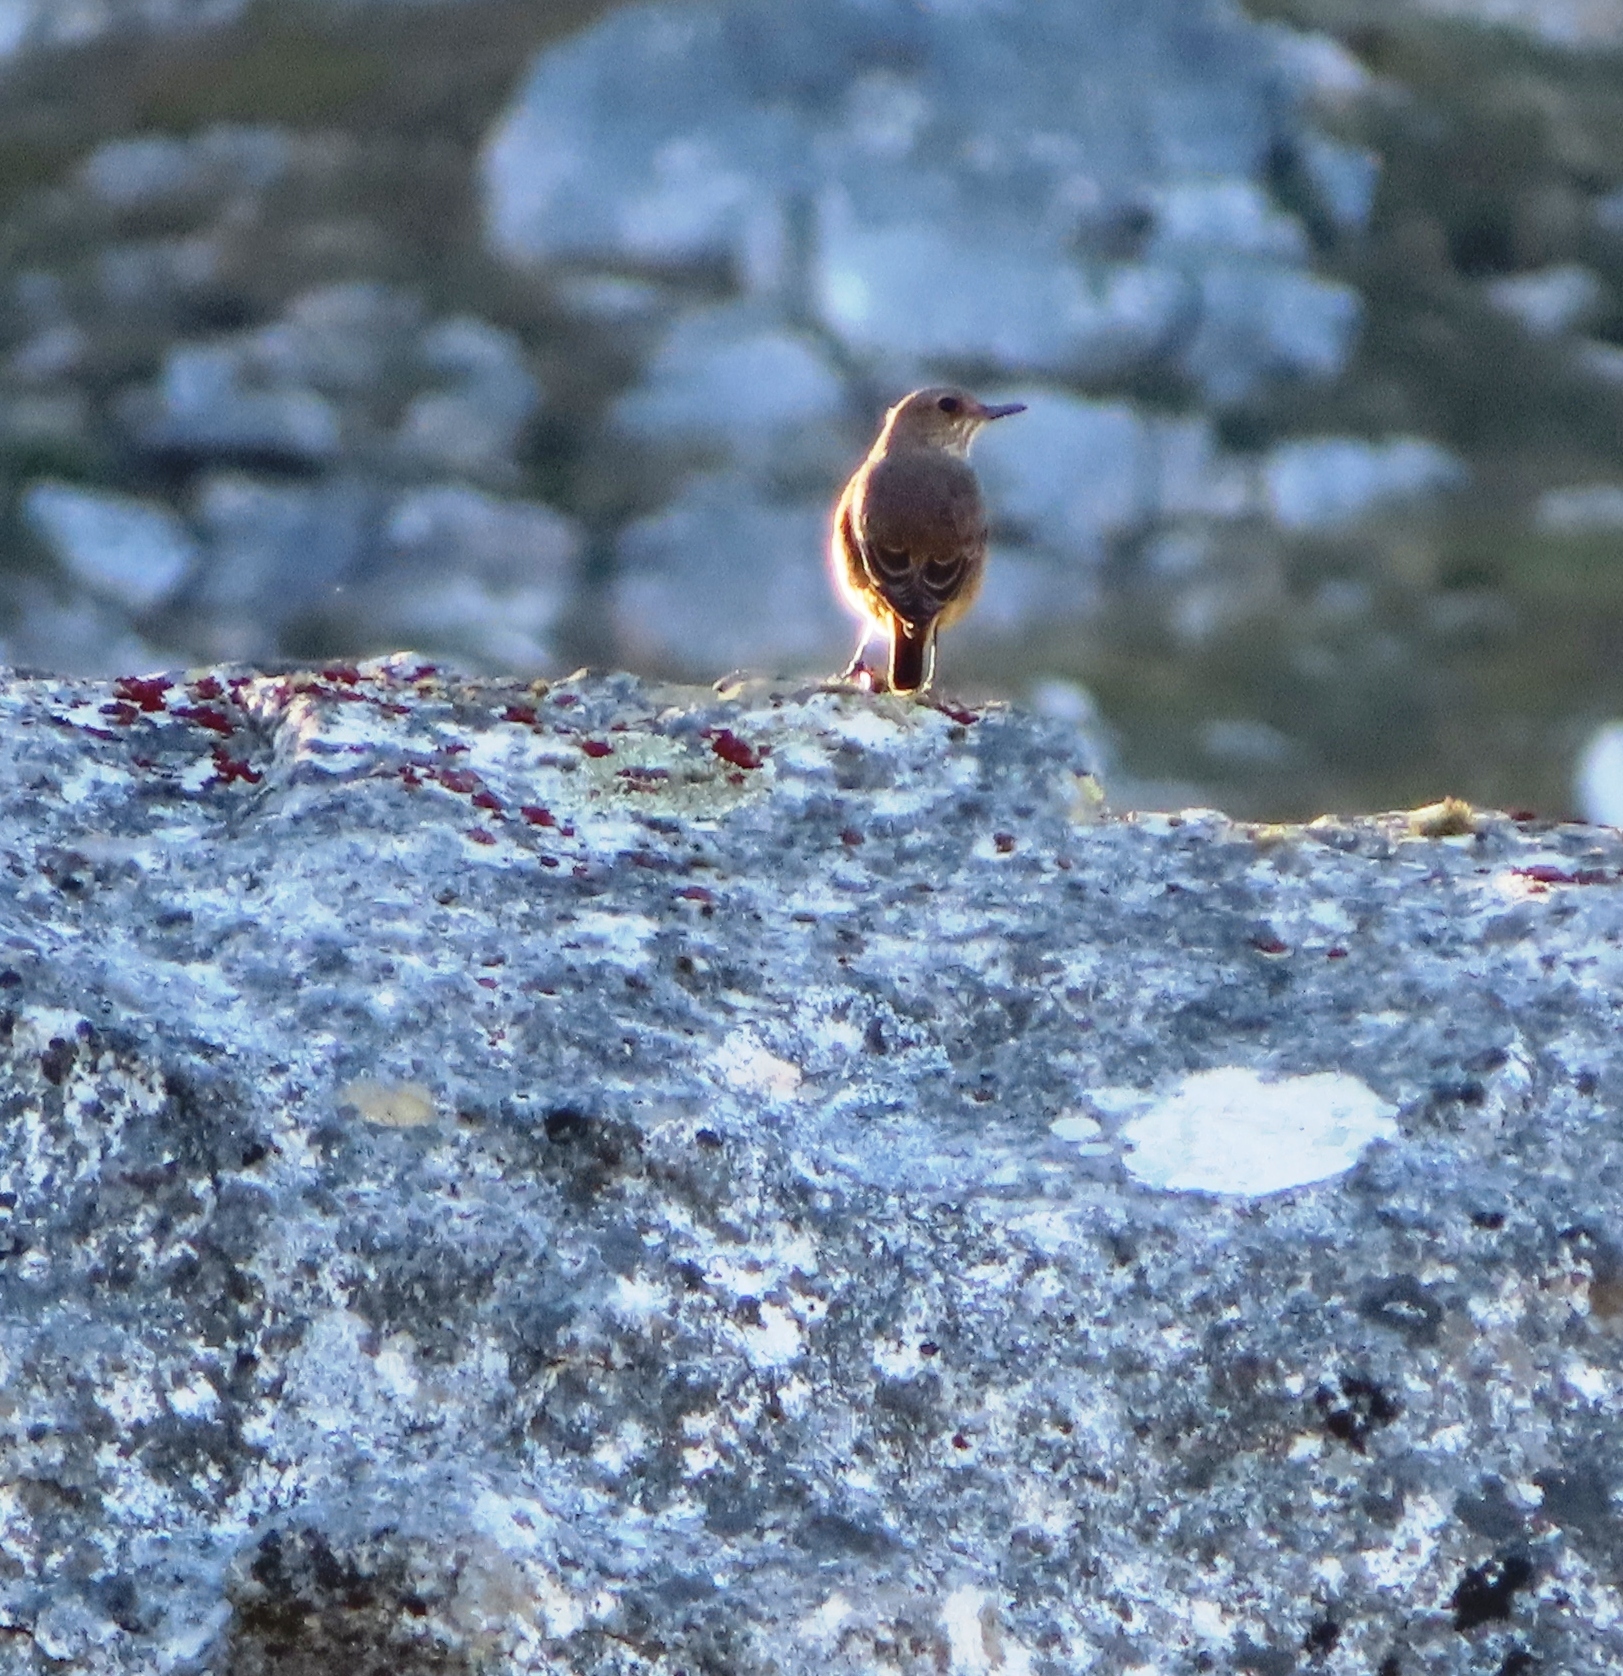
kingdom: Animalia
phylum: Chordata
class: Aves
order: Passeriformes
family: Muscicapidae
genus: Oenanthe
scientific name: Oenanthe familiaris
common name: Familiar chat
